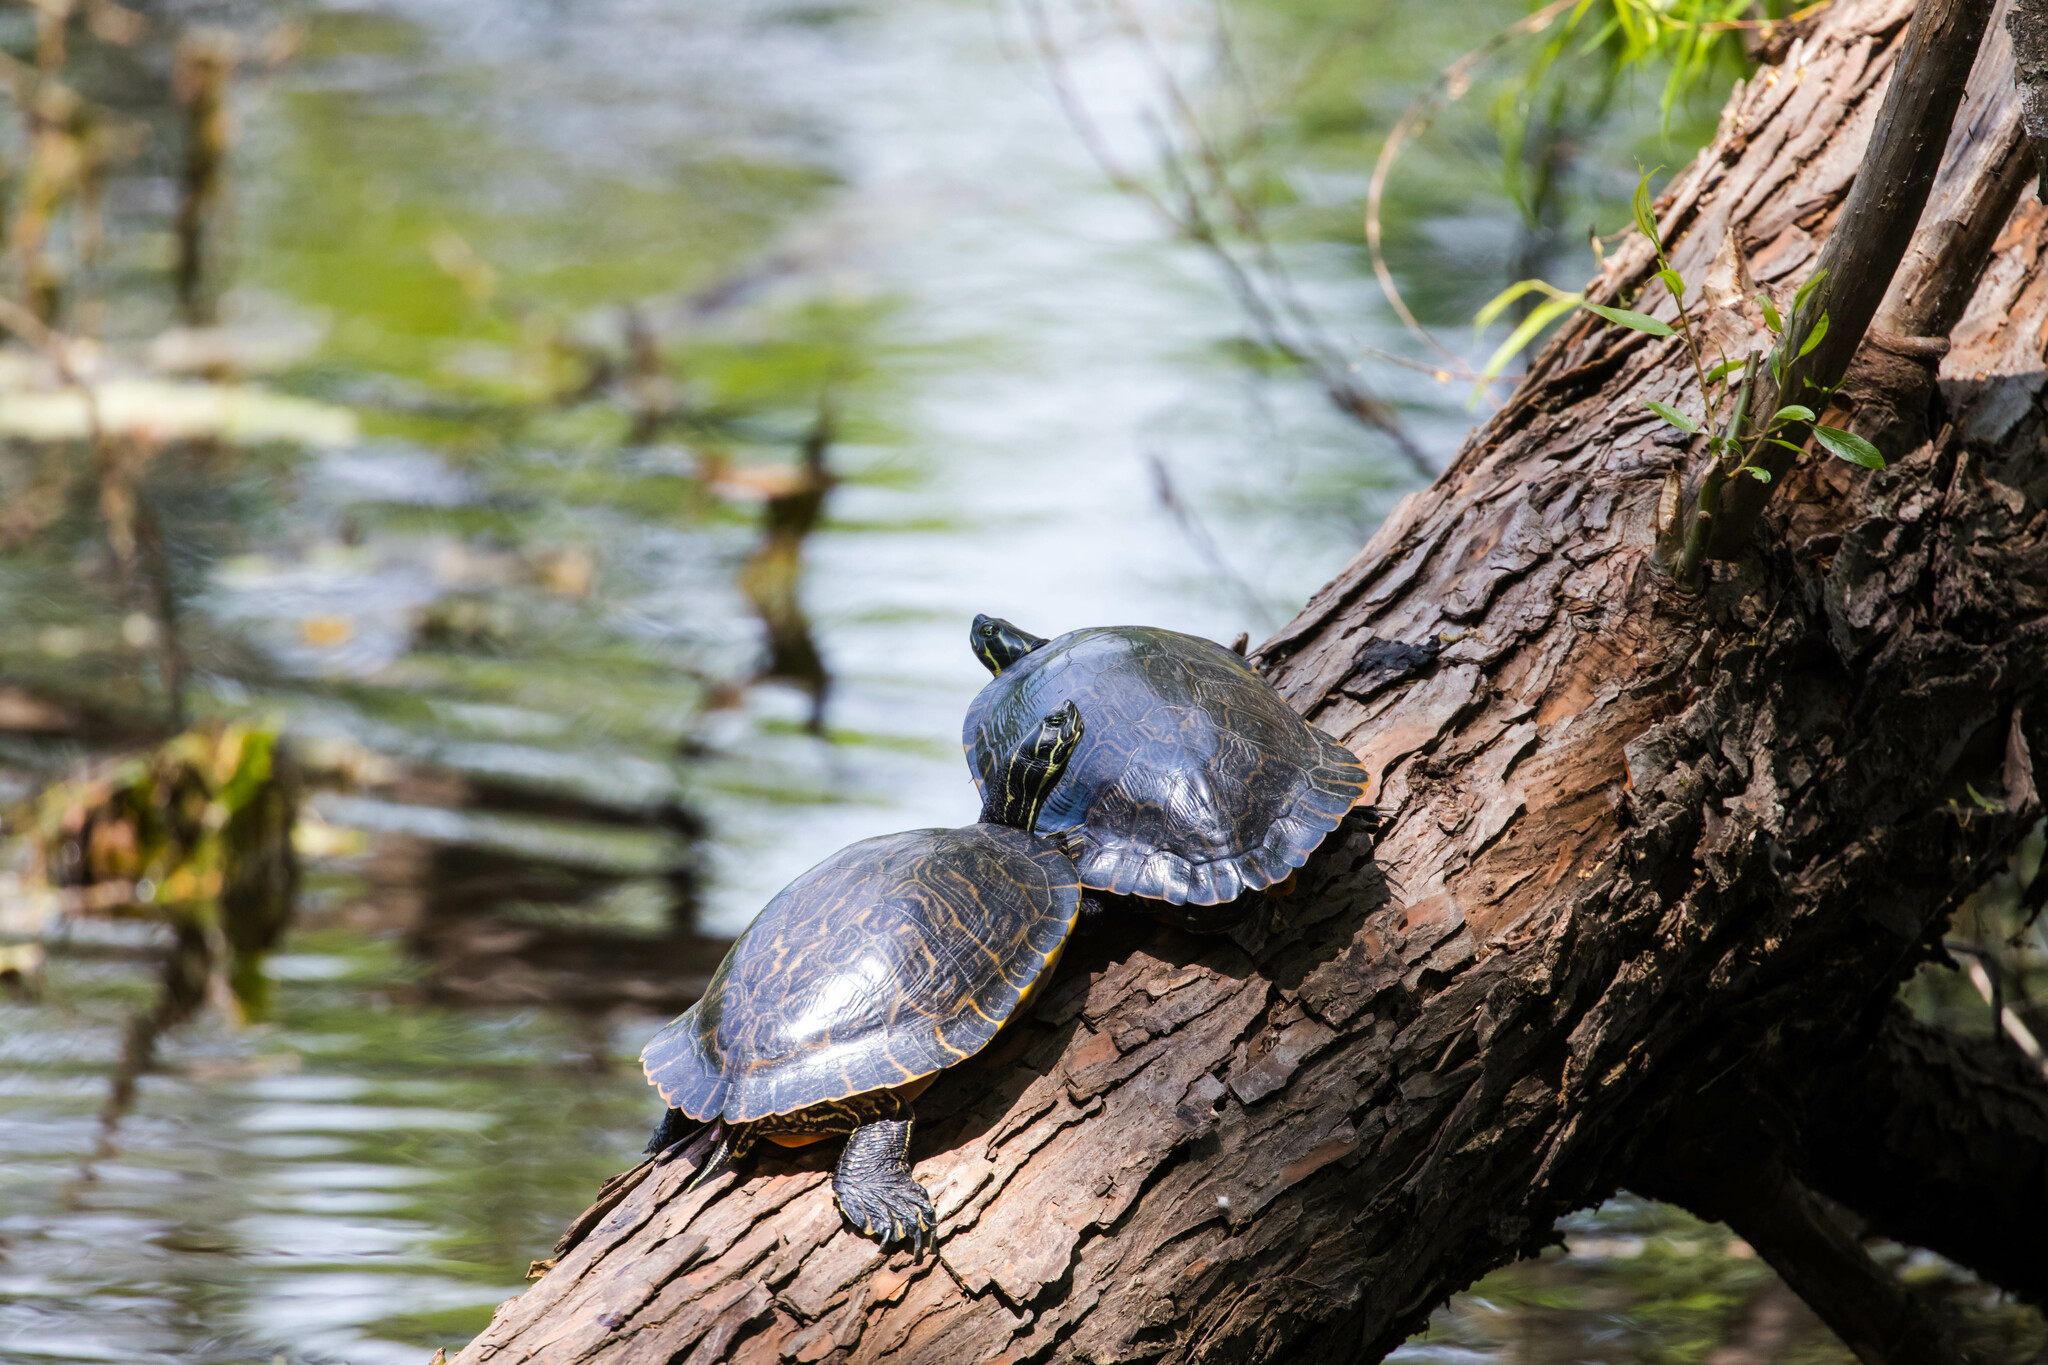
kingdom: Animalia
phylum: Chordata
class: Testudines
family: Emydidae
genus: Trachemys
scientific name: Trachemys scripta
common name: Slider
